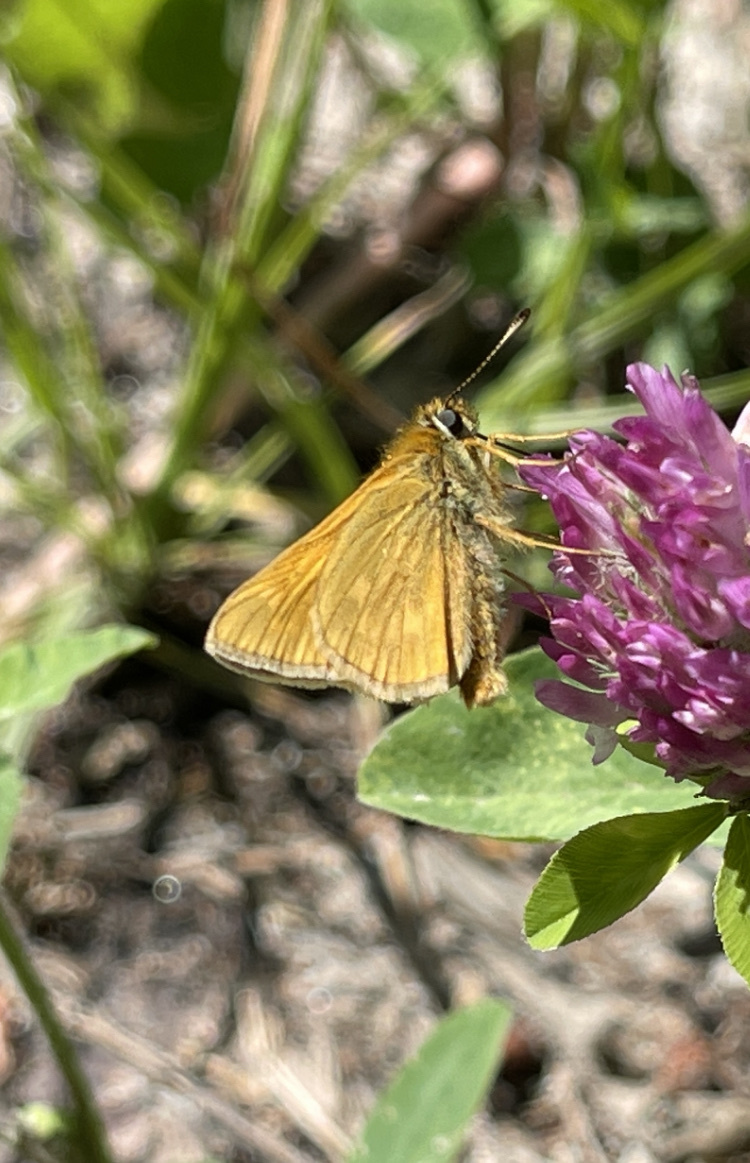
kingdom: Animalia
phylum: Arthropoda
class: Insecta
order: Lepidoptera
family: Hesperiidae
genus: Ochlodes
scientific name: Ochlodes venata
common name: Large skipper
